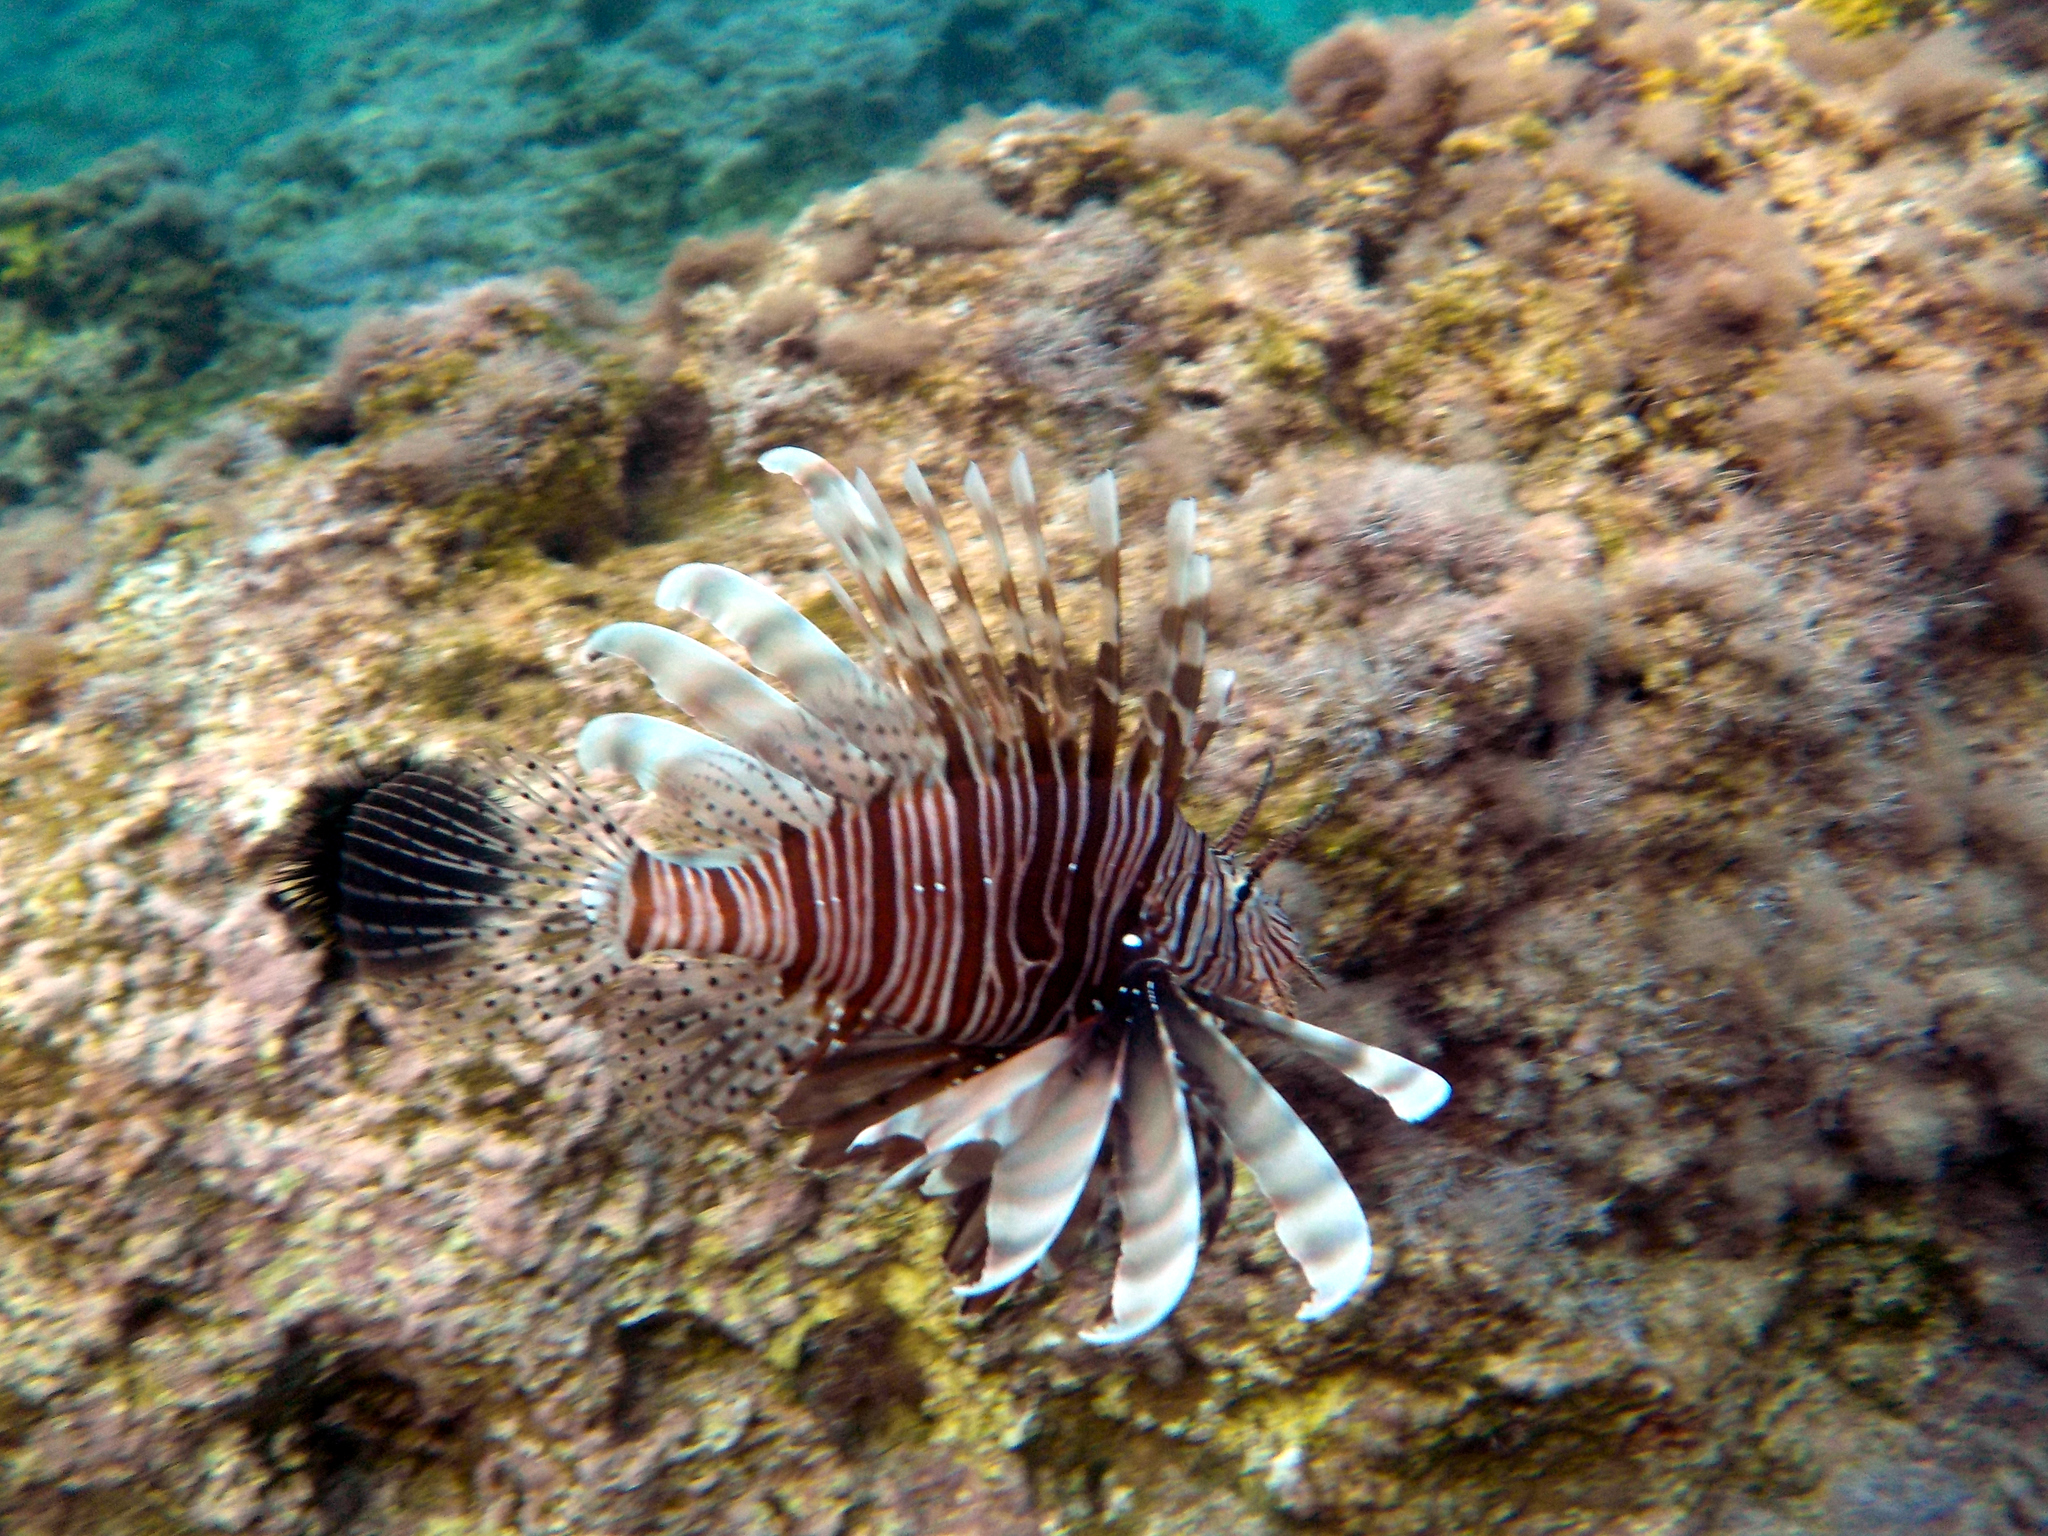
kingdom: Animalia
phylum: Chordata
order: Scorpaeniformes
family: Scorpaenidae
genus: Pterois
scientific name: Pterois miles
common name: Devil firefish
